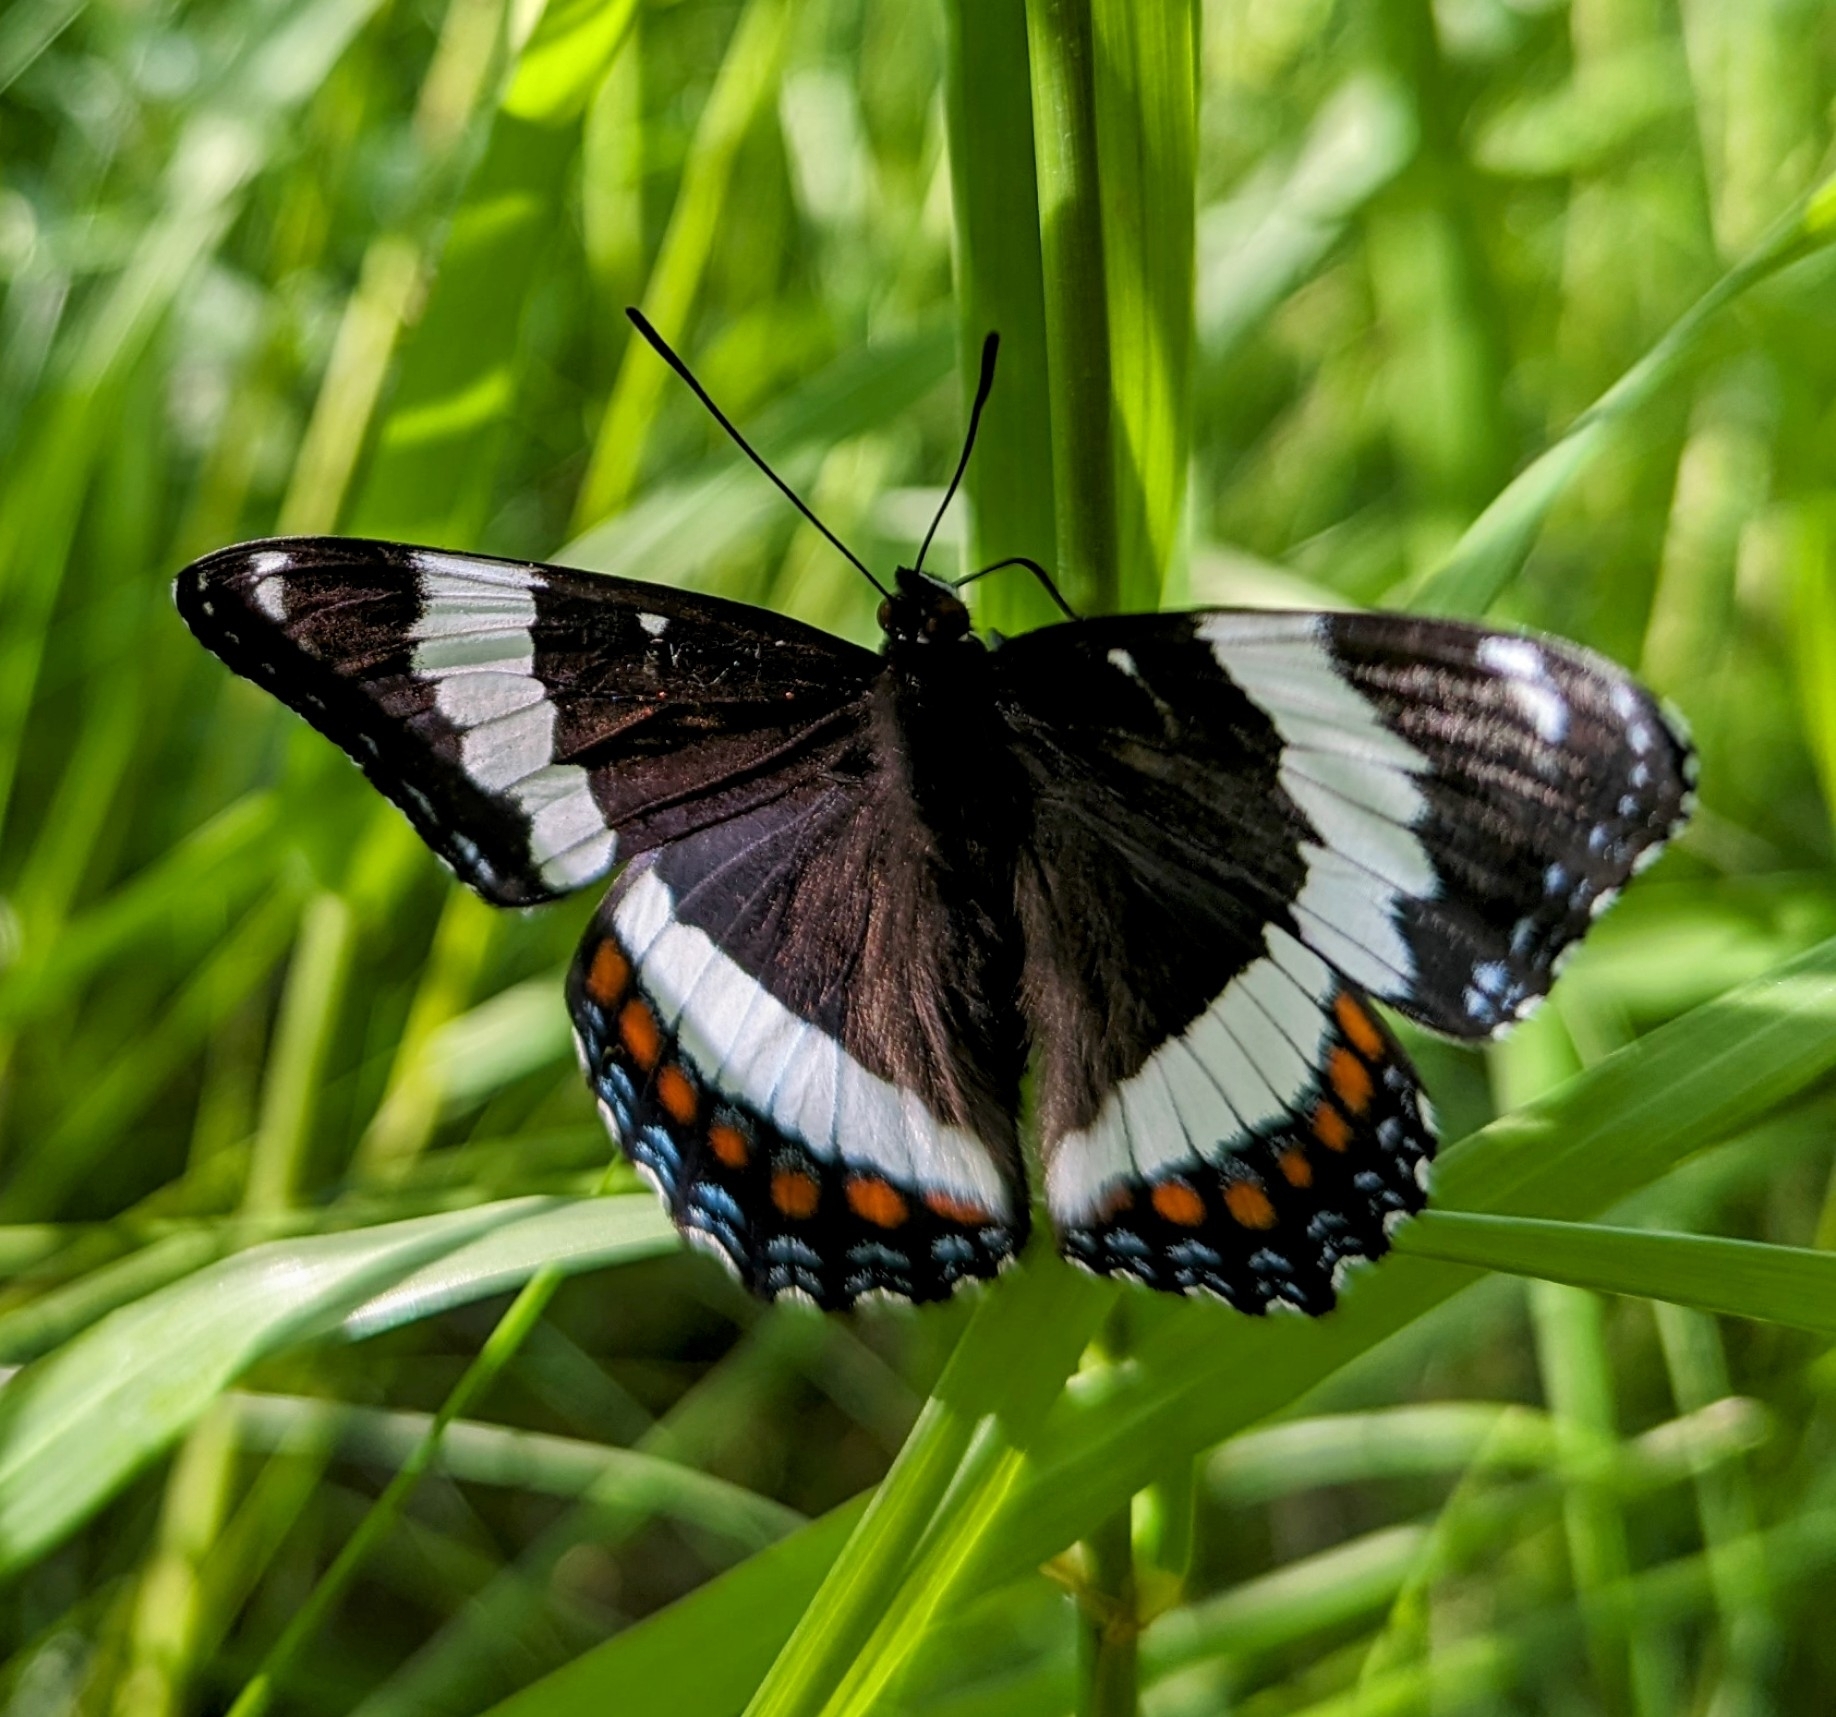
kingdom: Animalia
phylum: Arthropoda
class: Insecta
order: Lepidoptera
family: Nymphalidae
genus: Limenitis
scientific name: Limenitis arthemis
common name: Red-spotted admiral
